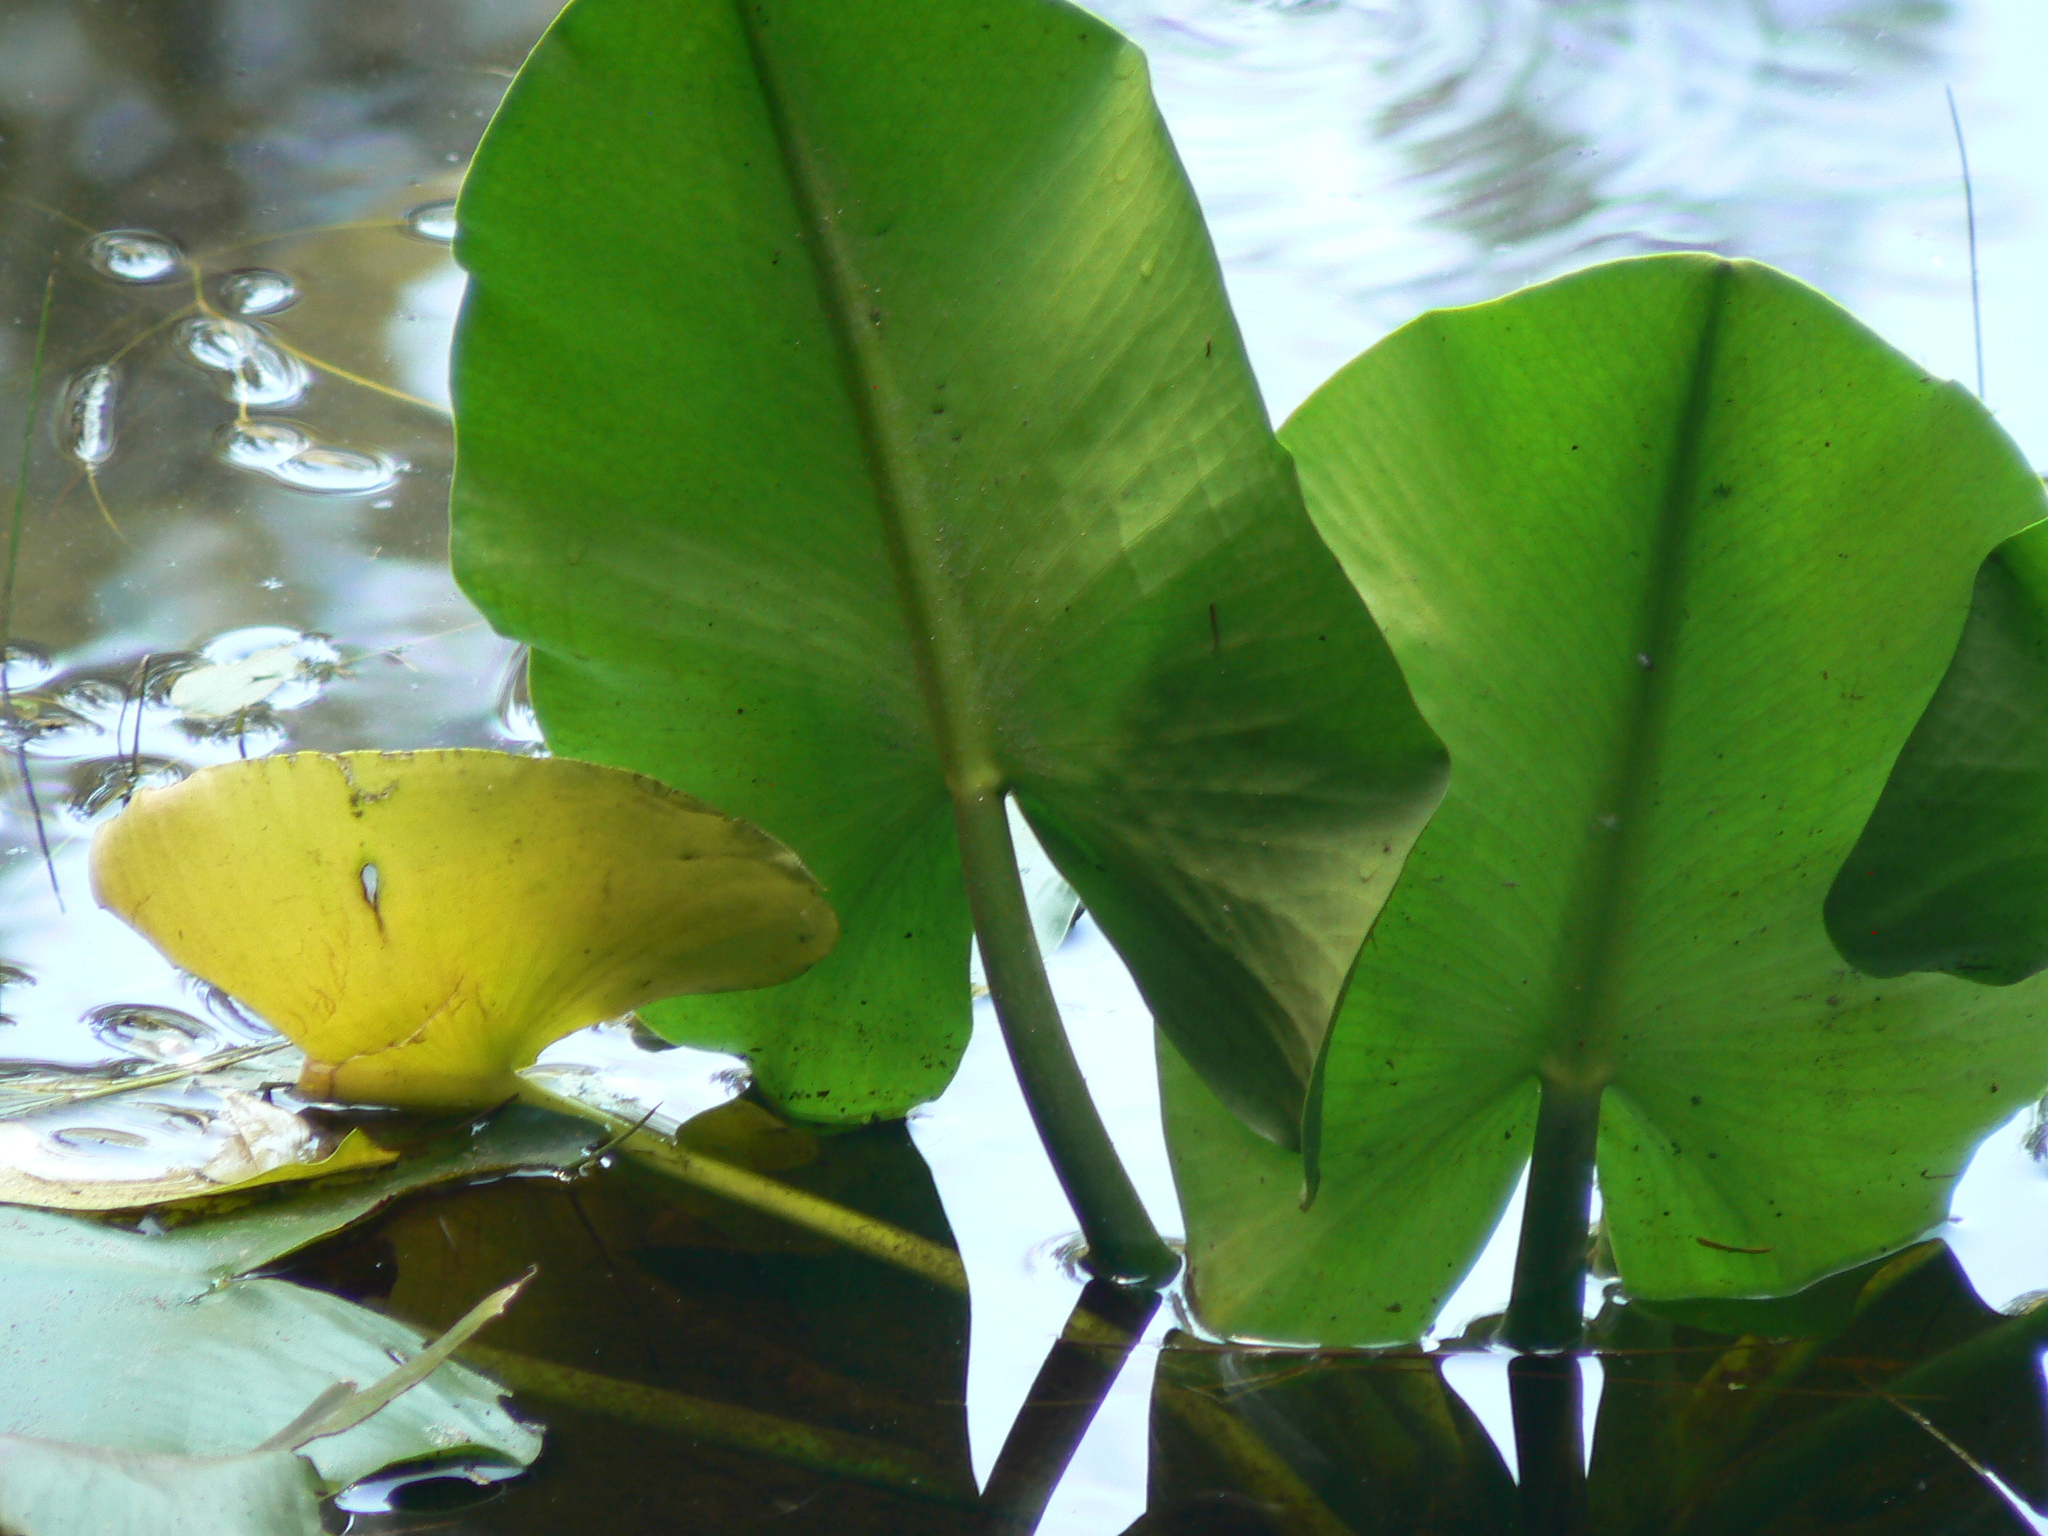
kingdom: Plantae
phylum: Tracheophyta
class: Magnoliopsida
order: Nymphaeales
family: Nymphaeaceae
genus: Nuphar
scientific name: Nuphar polysepala
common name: Rocky mountain cow-lily
